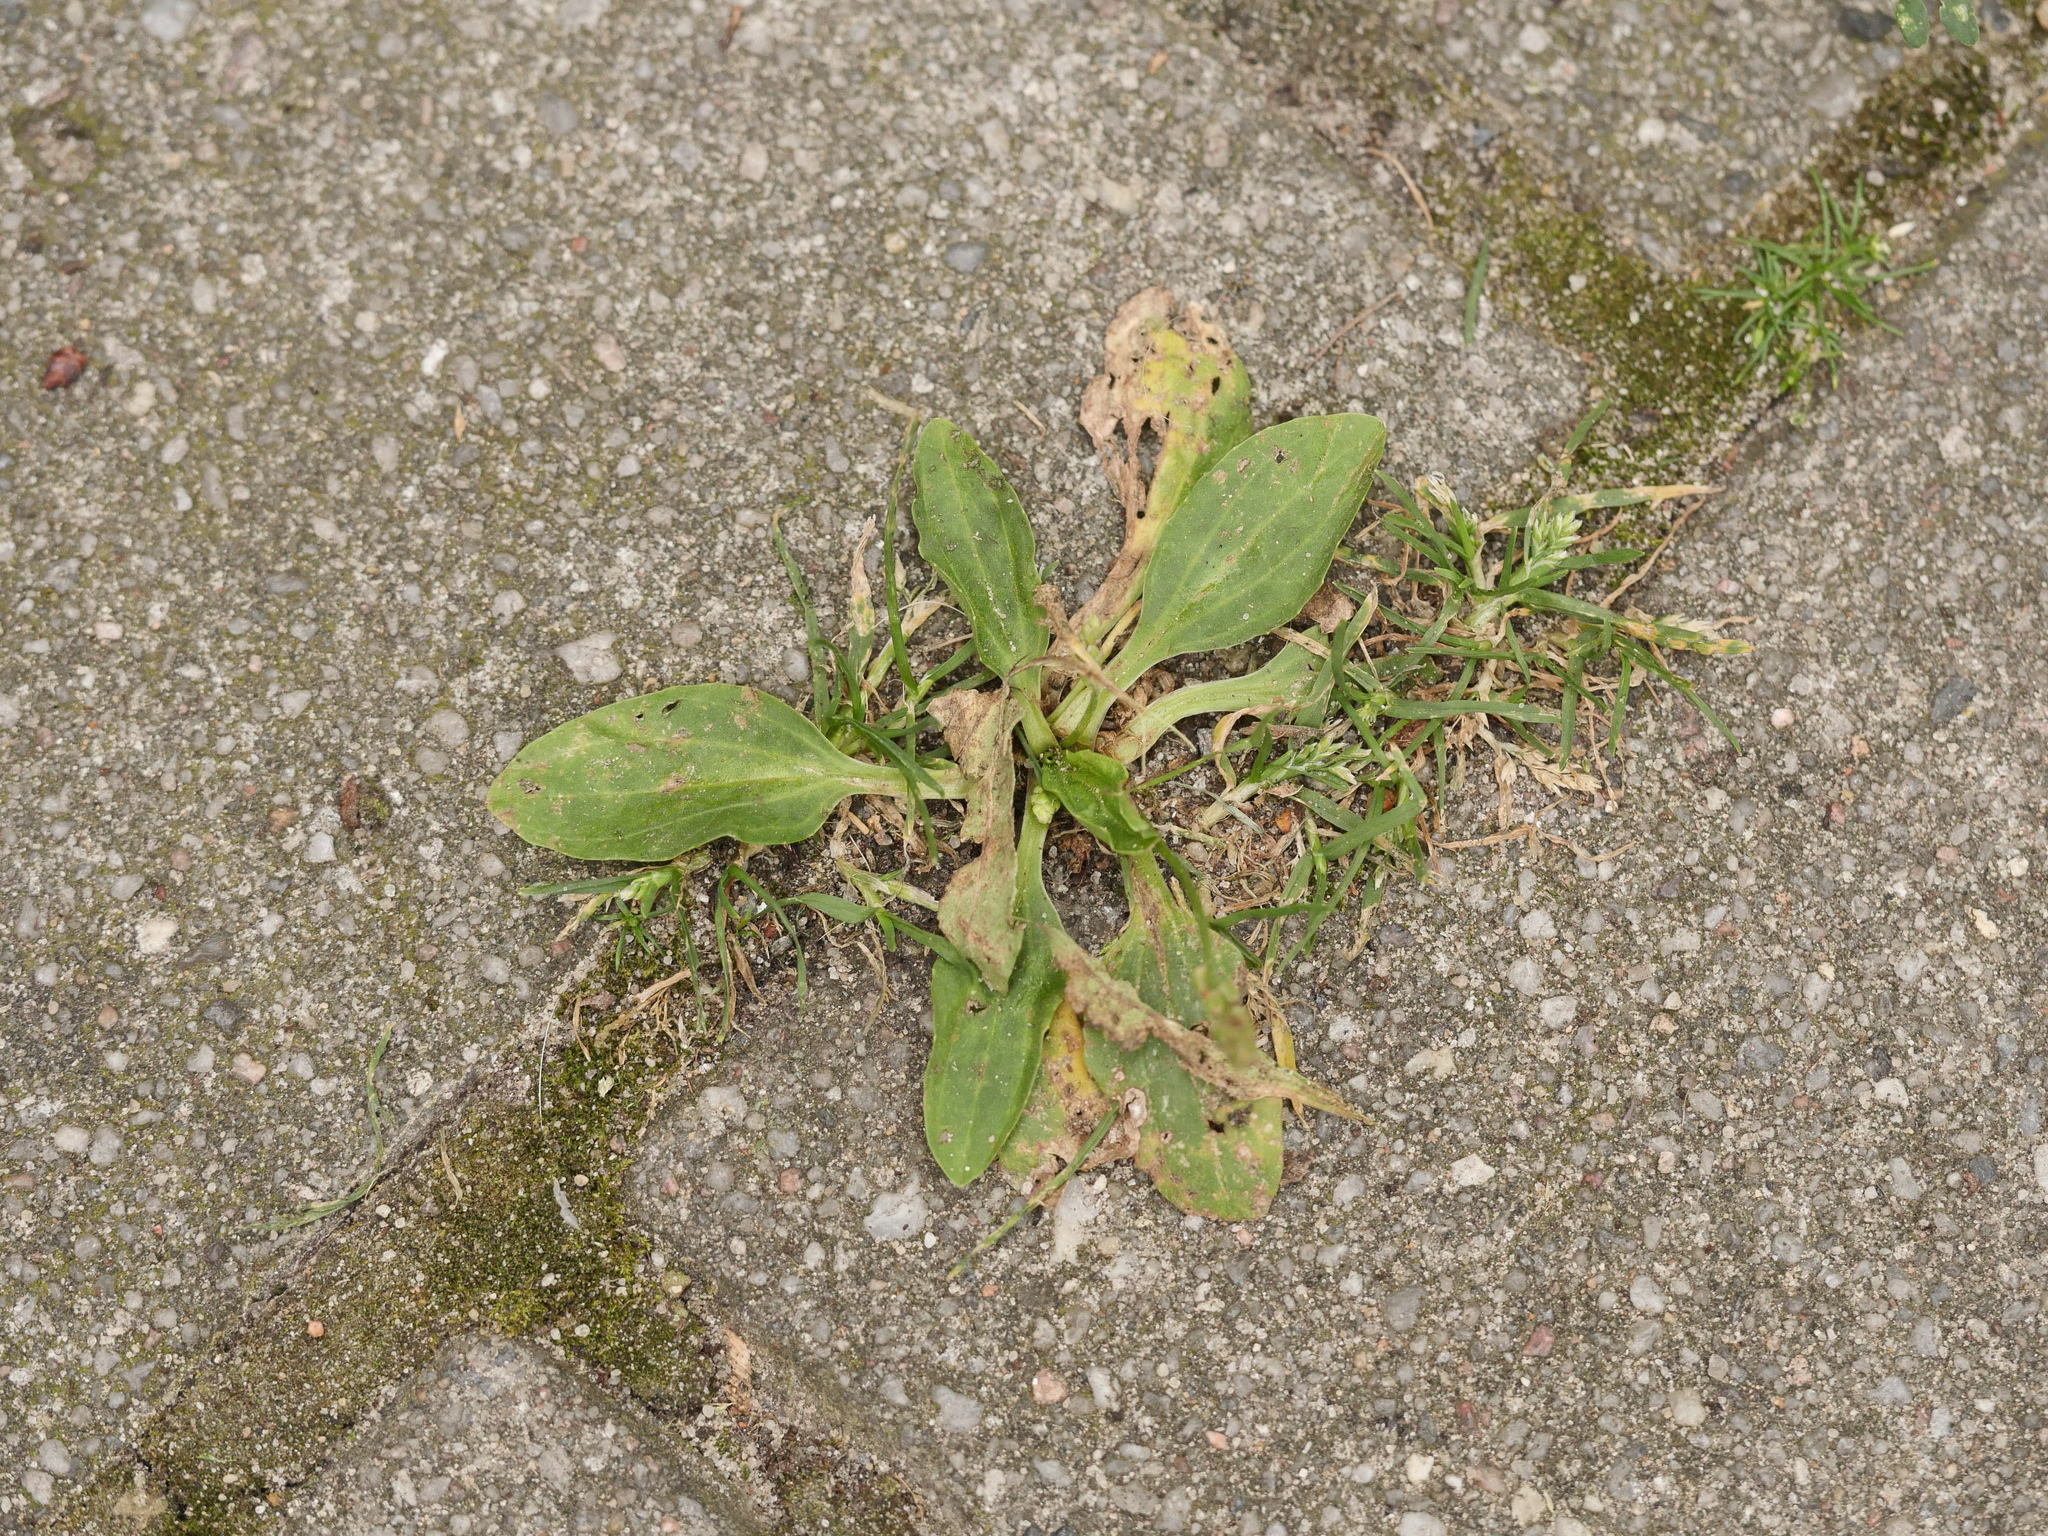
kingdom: Plantae
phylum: Tracheophyta
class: Magnoliopsida
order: Lamiales
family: Plantaginaceae
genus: Plantago
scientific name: Plantago major
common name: Common plantain
